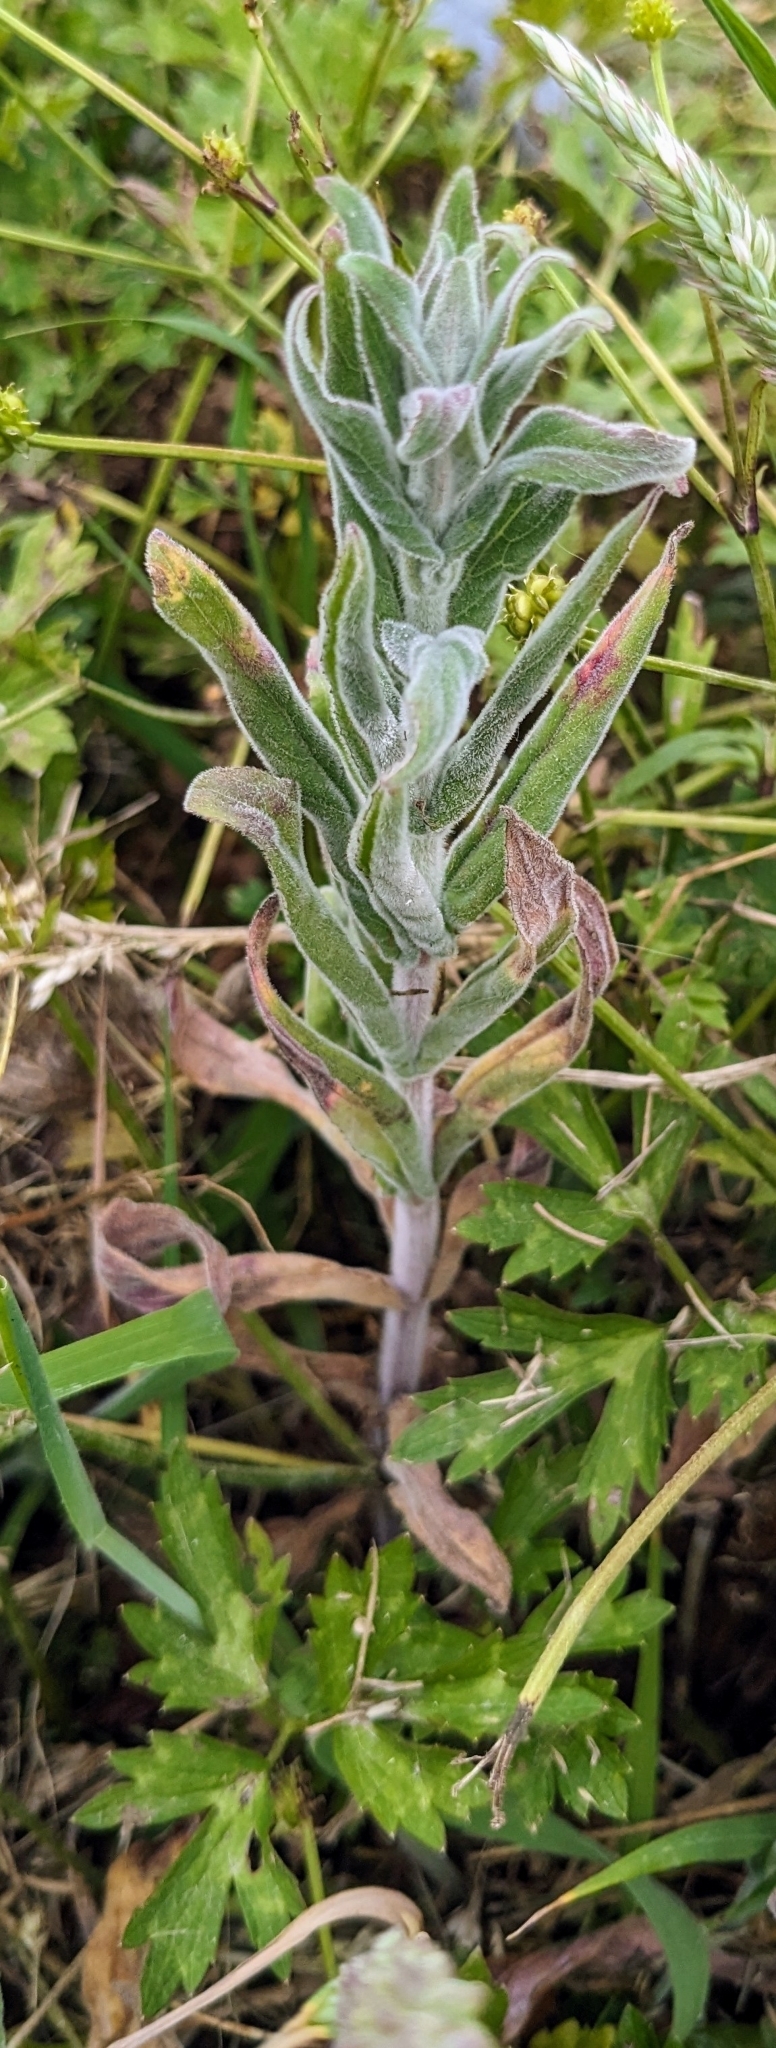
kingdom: Plantae
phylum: Tracheophyta
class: Magnoliopsida
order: Myrtales
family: Onagraceae
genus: Epilobium
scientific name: Epilobium parviflorum
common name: Hoary willowherb
